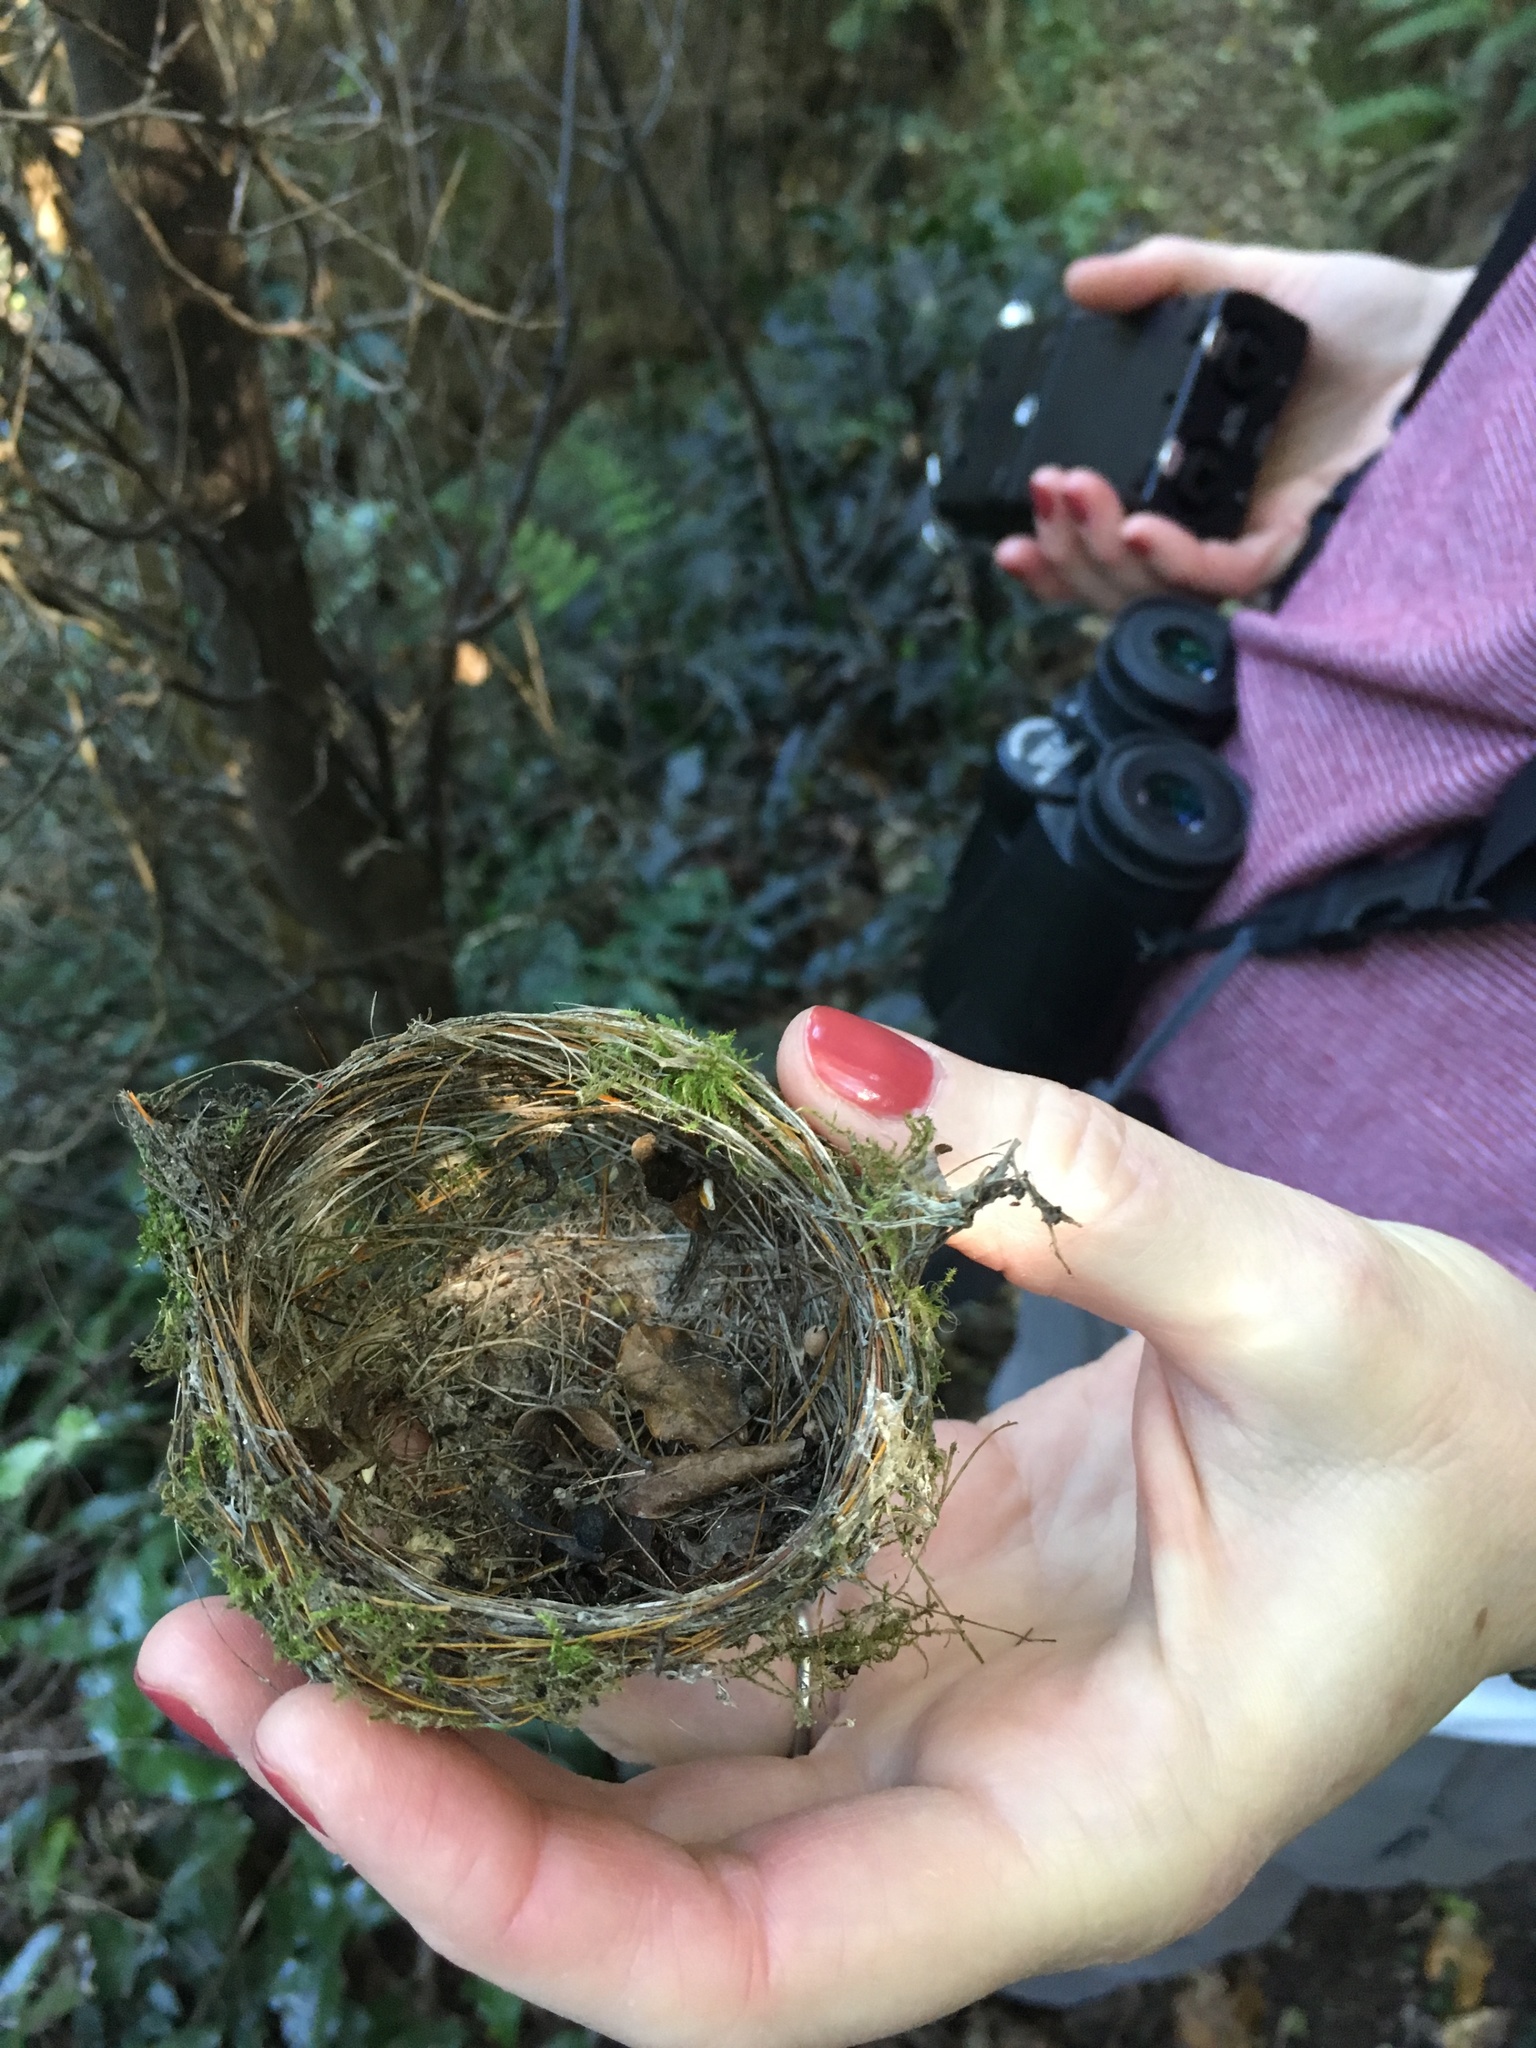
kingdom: Animalia
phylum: Chordata
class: Aves
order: Passeriformes
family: Zosteropidae
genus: Zosterops
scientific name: Zosterops lateralis
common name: Silvereye
